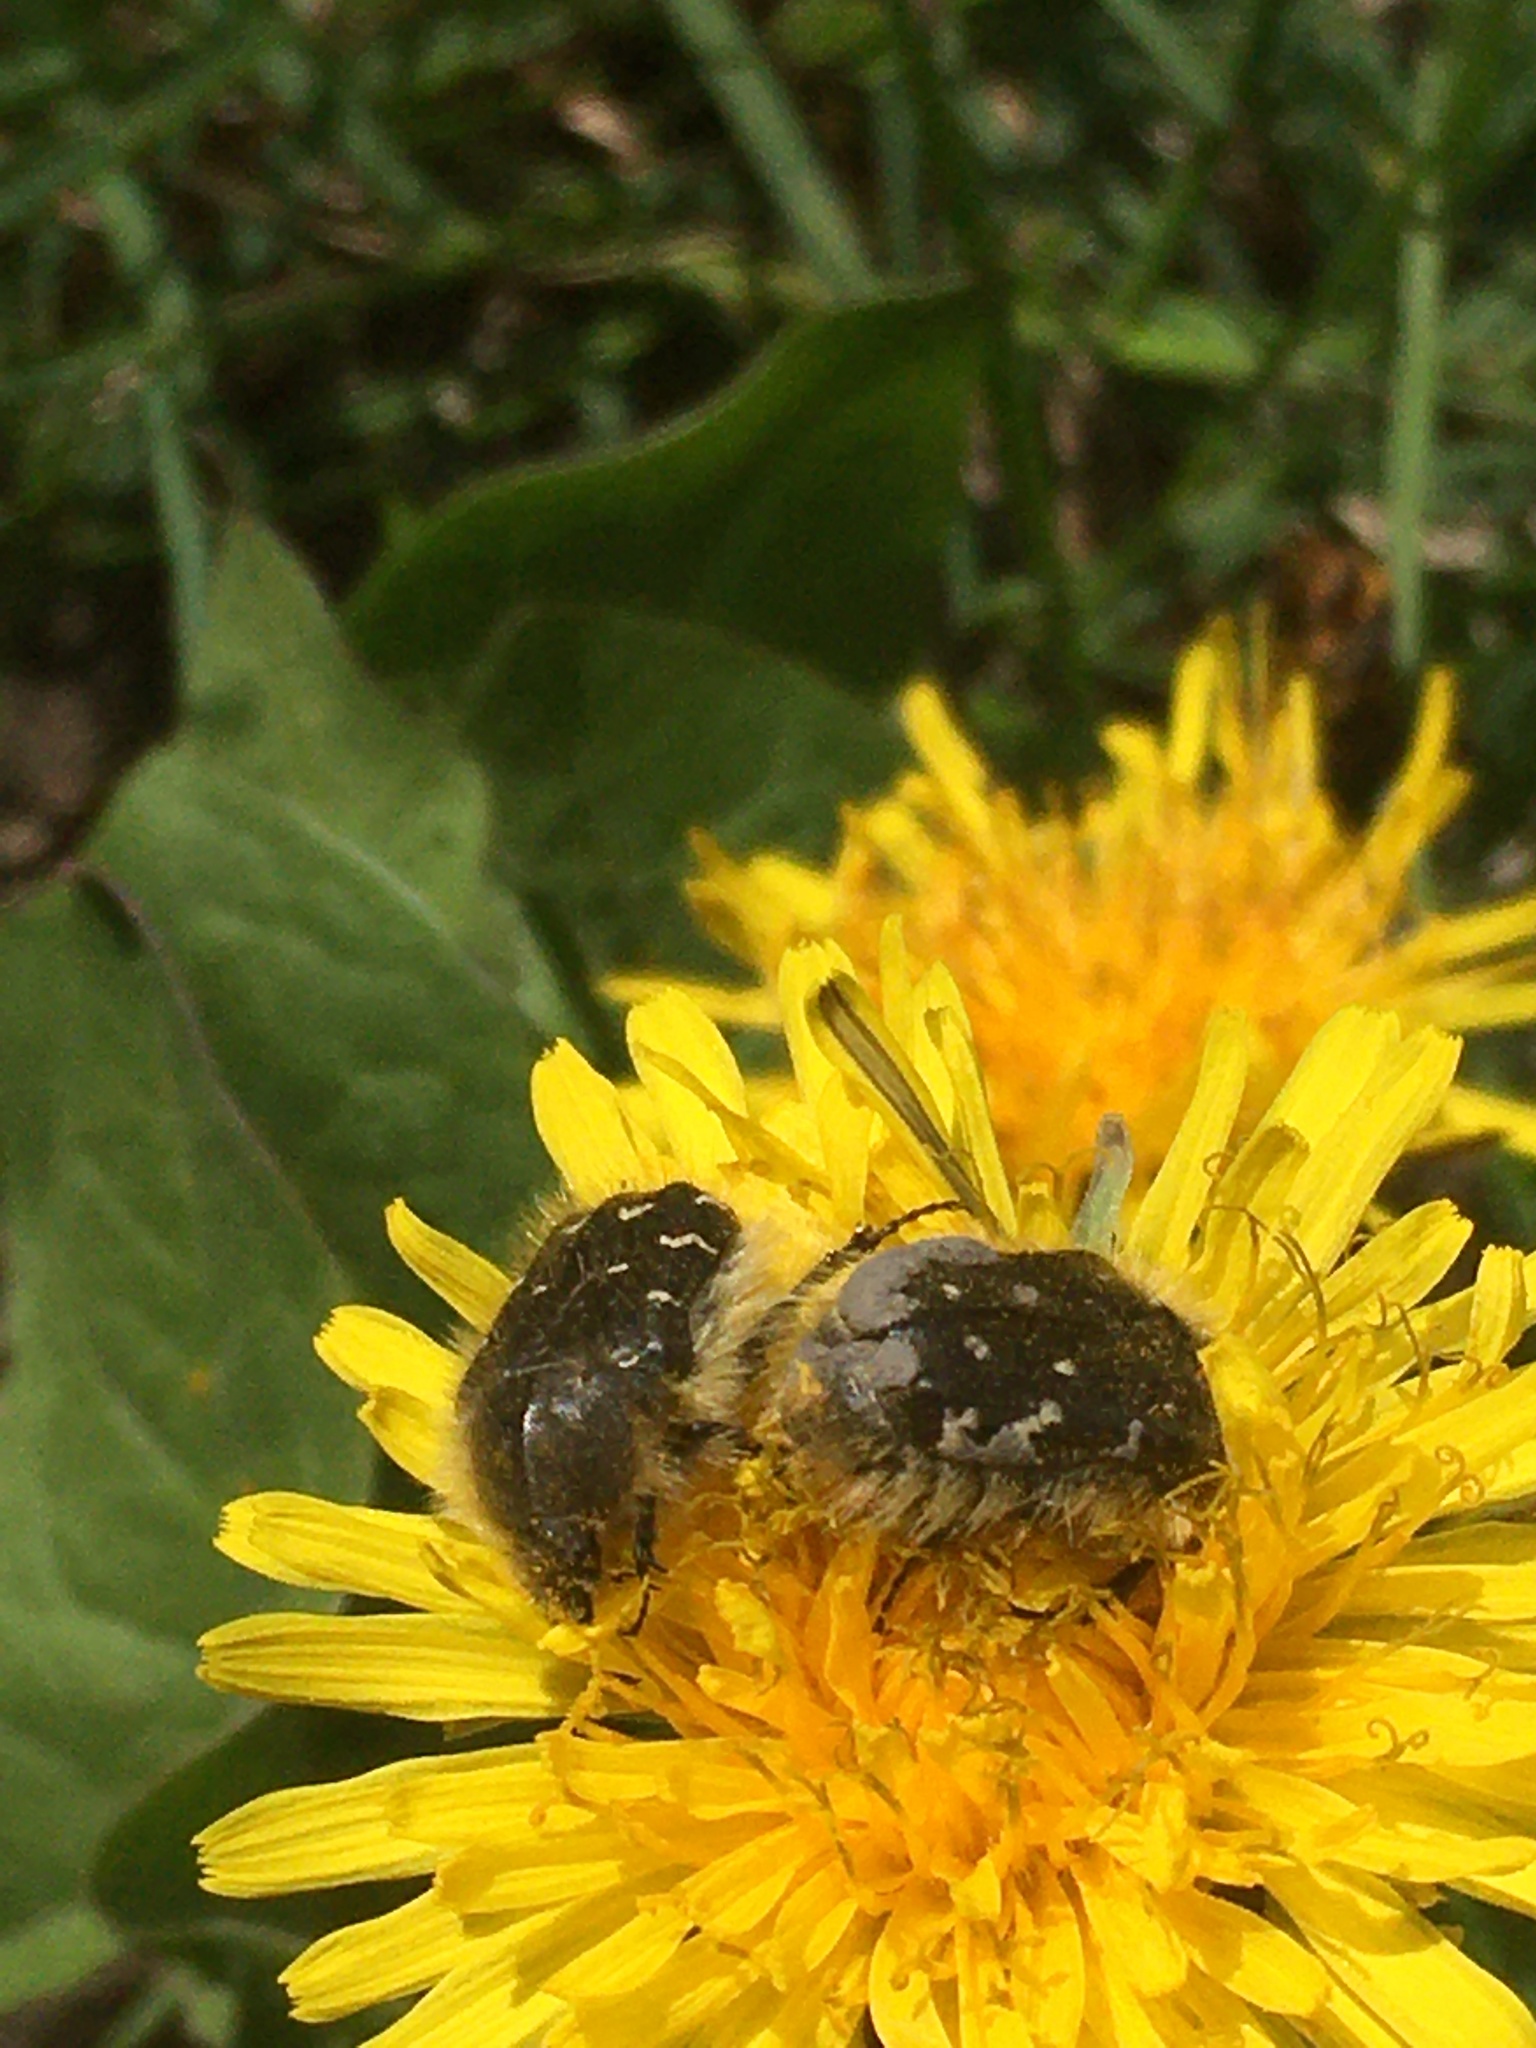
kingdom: Animalia
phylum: Arthropoda
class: Insecta
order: Coleoptera
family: Scarabaeidae
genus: Tropinota
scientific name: Tropinota hirta
